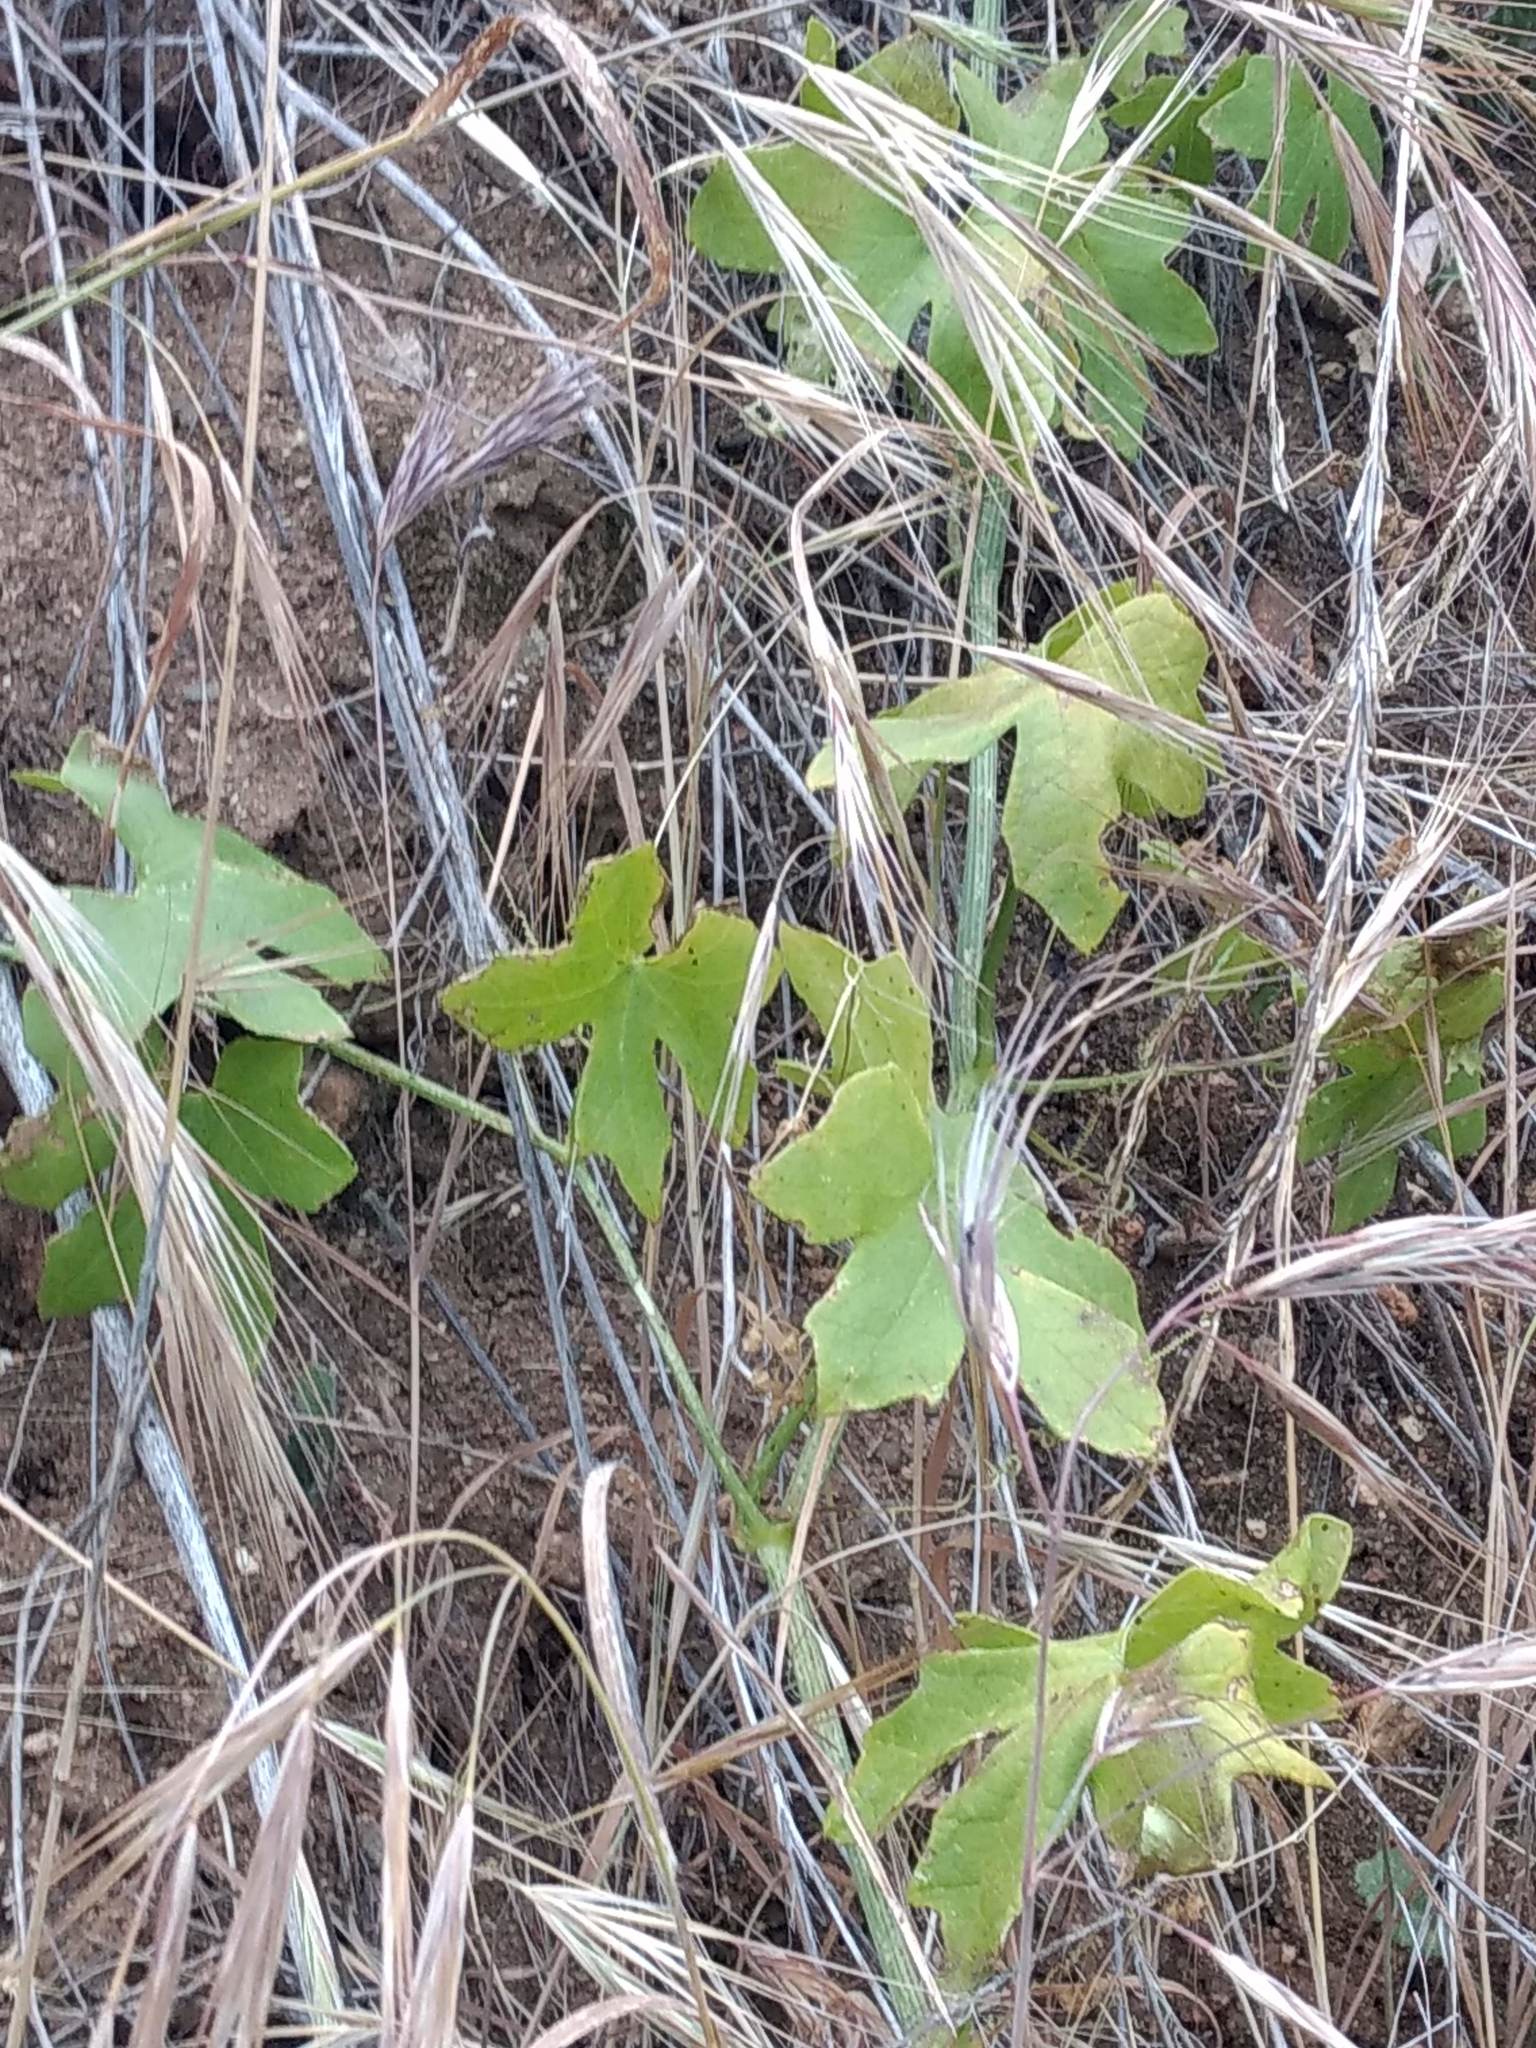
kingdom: Plantae
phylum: Tracheophyta
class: Magnoliopsida
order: Cucurbitales
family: Cucurbitaceae
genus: Marah
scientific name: Marah macrocarpa
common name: Cucamonga manroot
